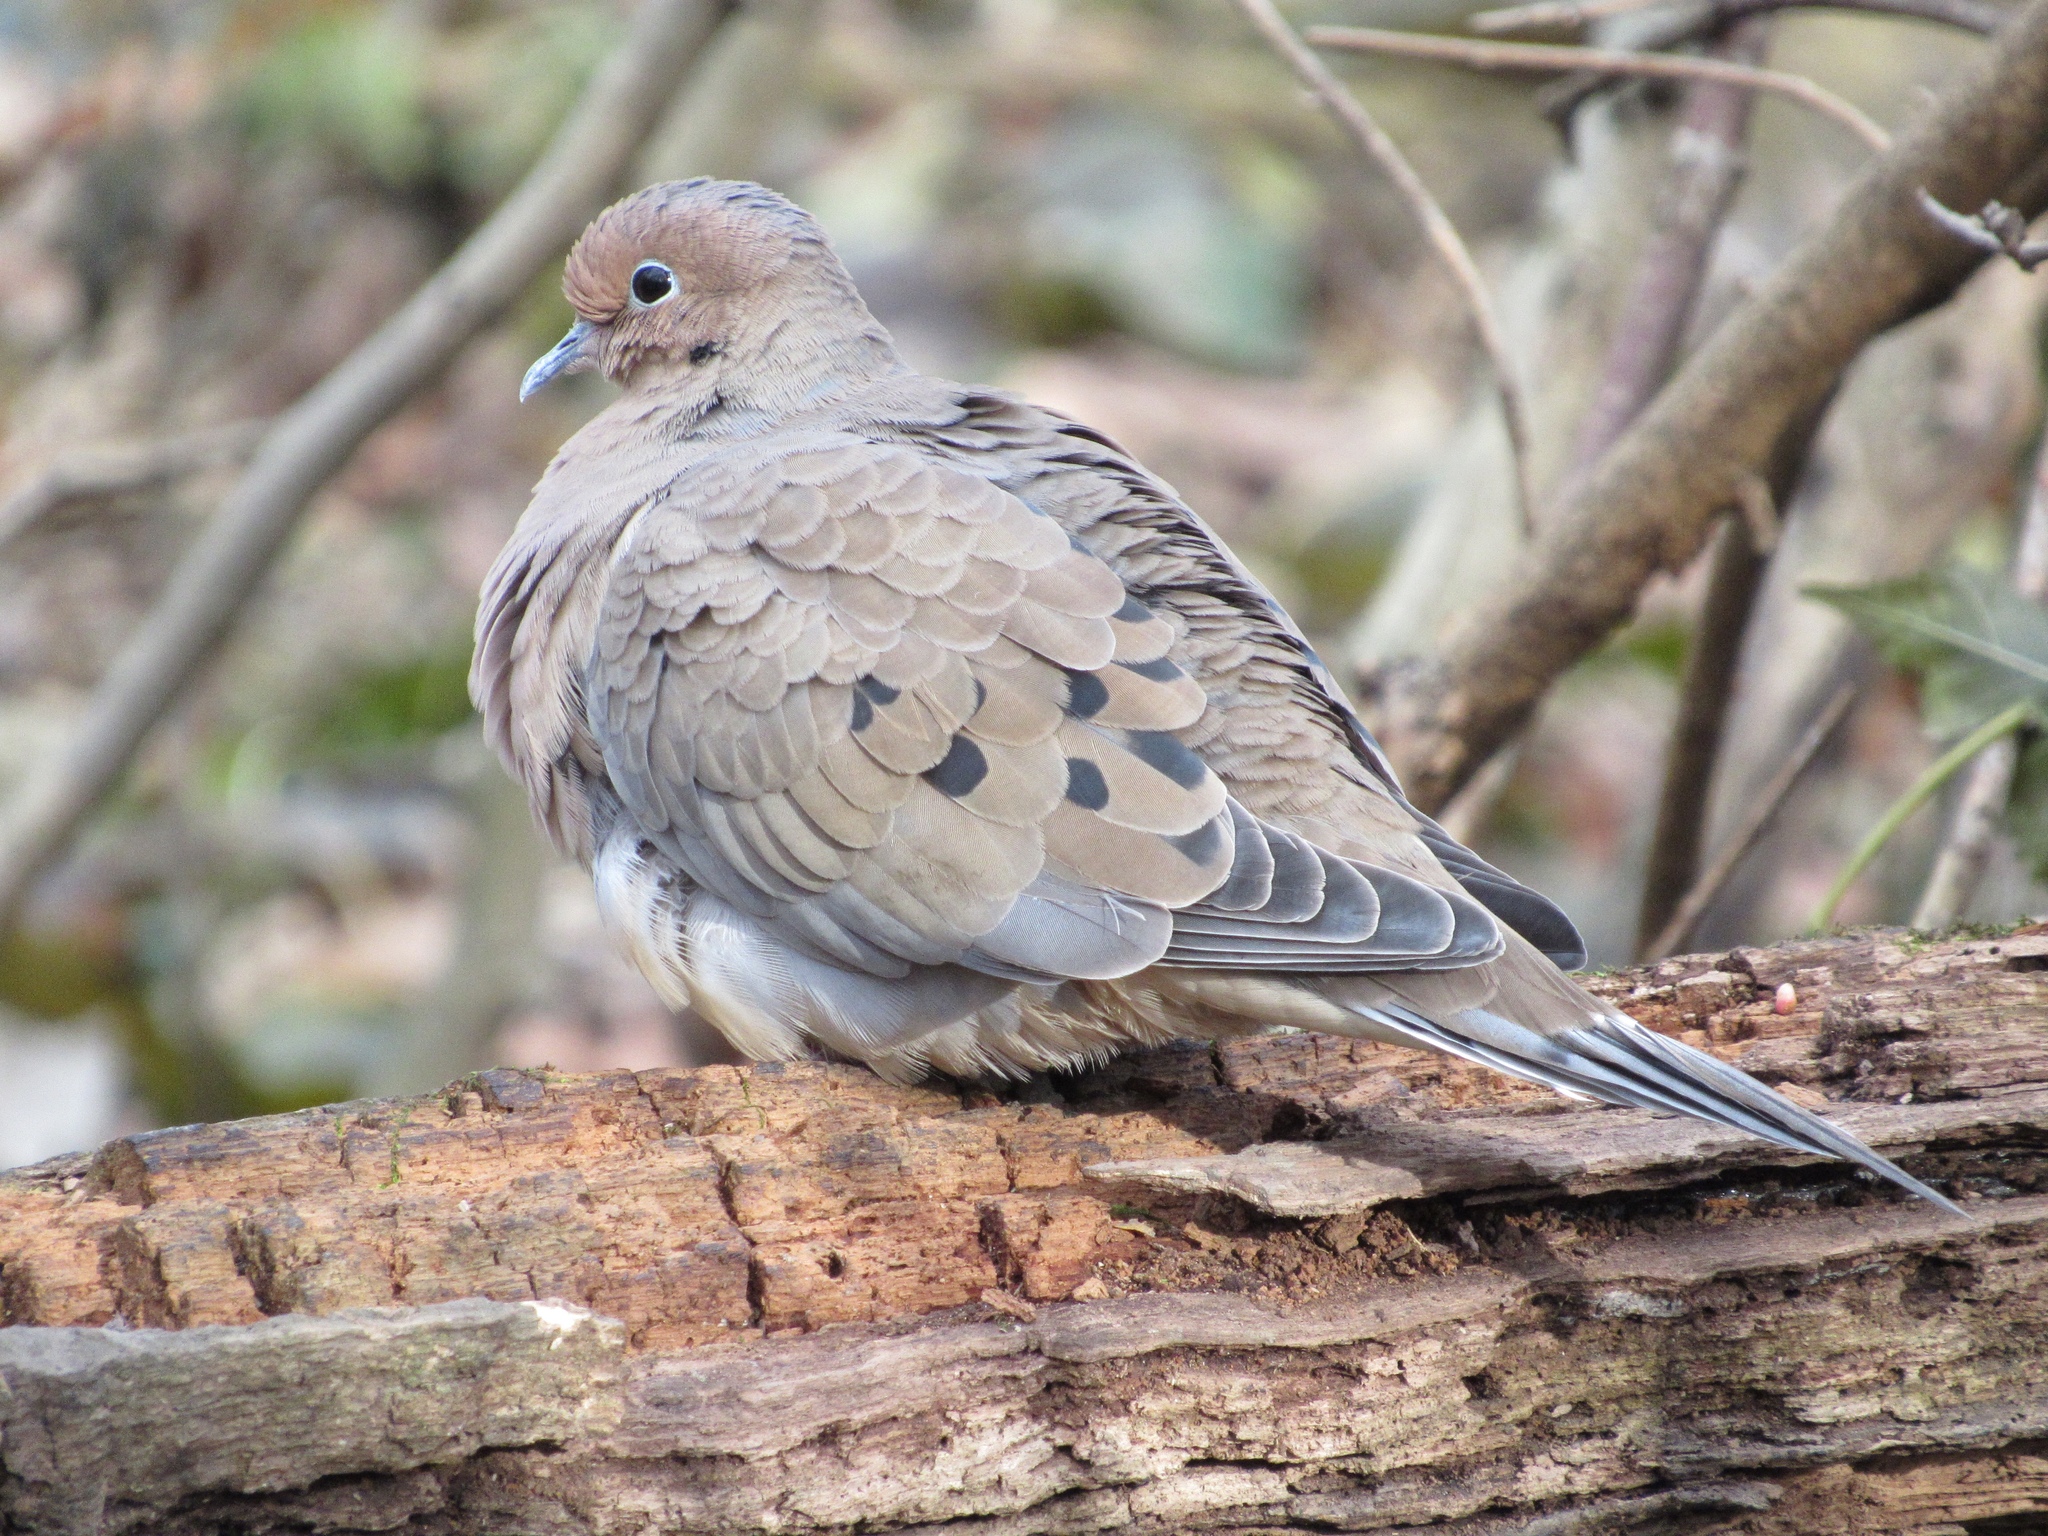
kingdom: Animalia
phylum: Chordata
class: Aves
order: Columbiformes
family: Columbidae
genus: Zenaida
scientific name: Zenaida macroura
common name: Mourning dove
